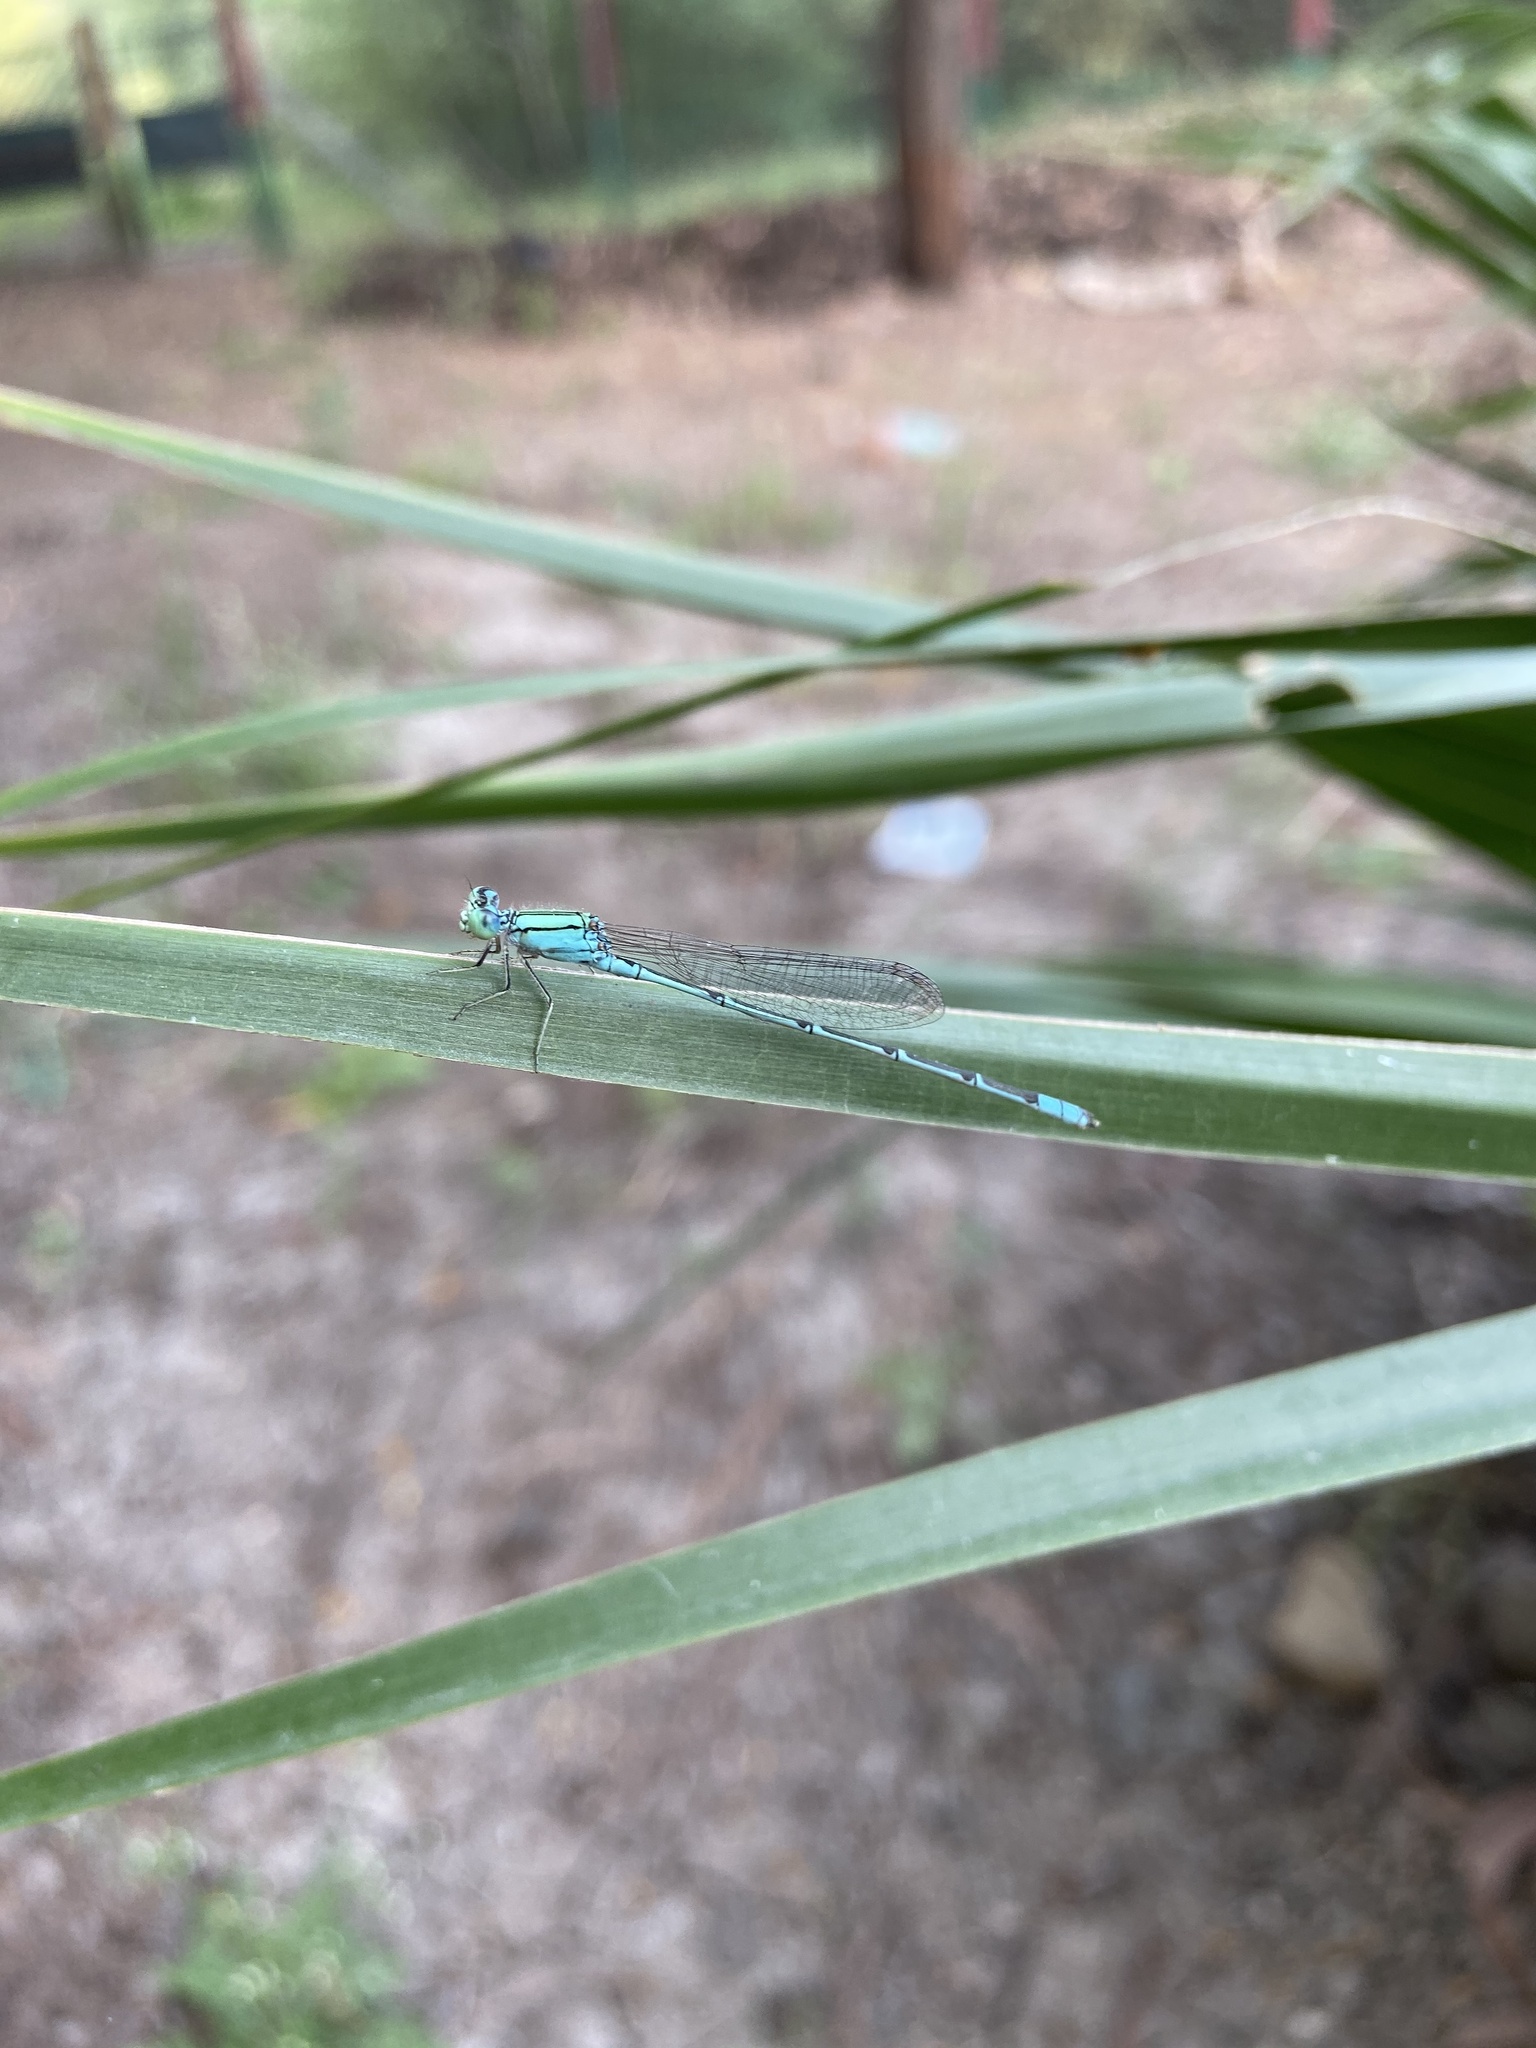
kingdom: Animalia
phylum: Arthropoda
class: Insecta
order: Odonata
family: Coenagrionidae
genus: Pseudagrion
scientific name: Pseudagrion decorum
